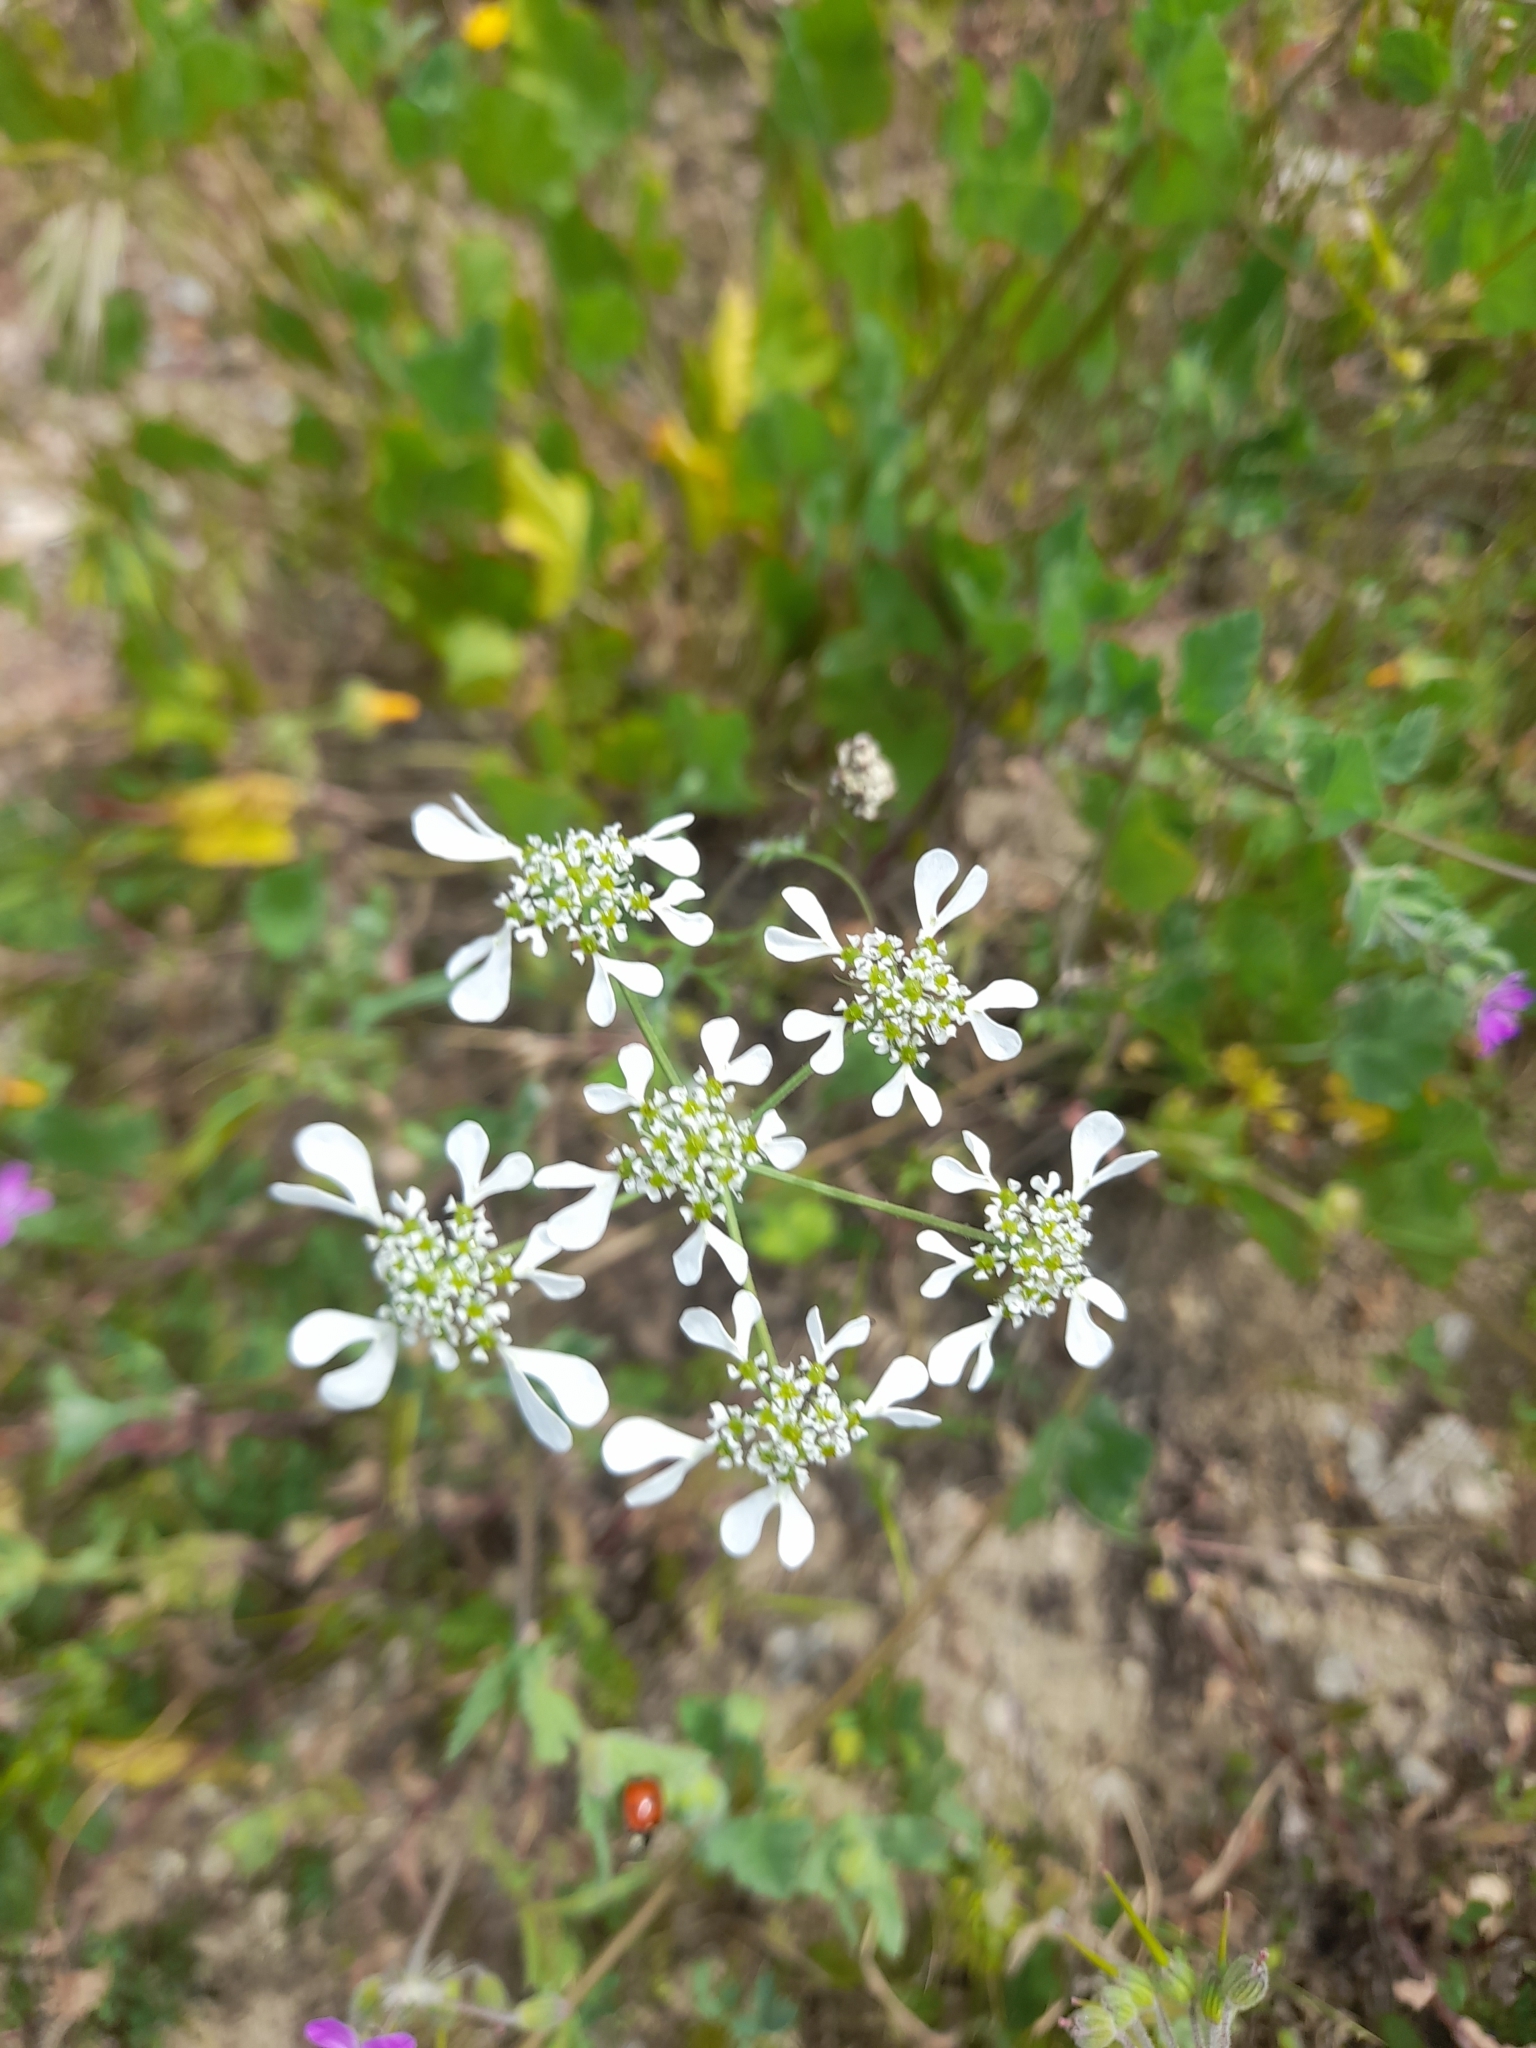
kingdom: Plantae
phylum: Tracheophyta
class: Magnoliopsida
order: Apiales
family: Apiaceae
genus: Tordylium
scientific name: Tordylium apulum
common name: Mediterranean hartwort
